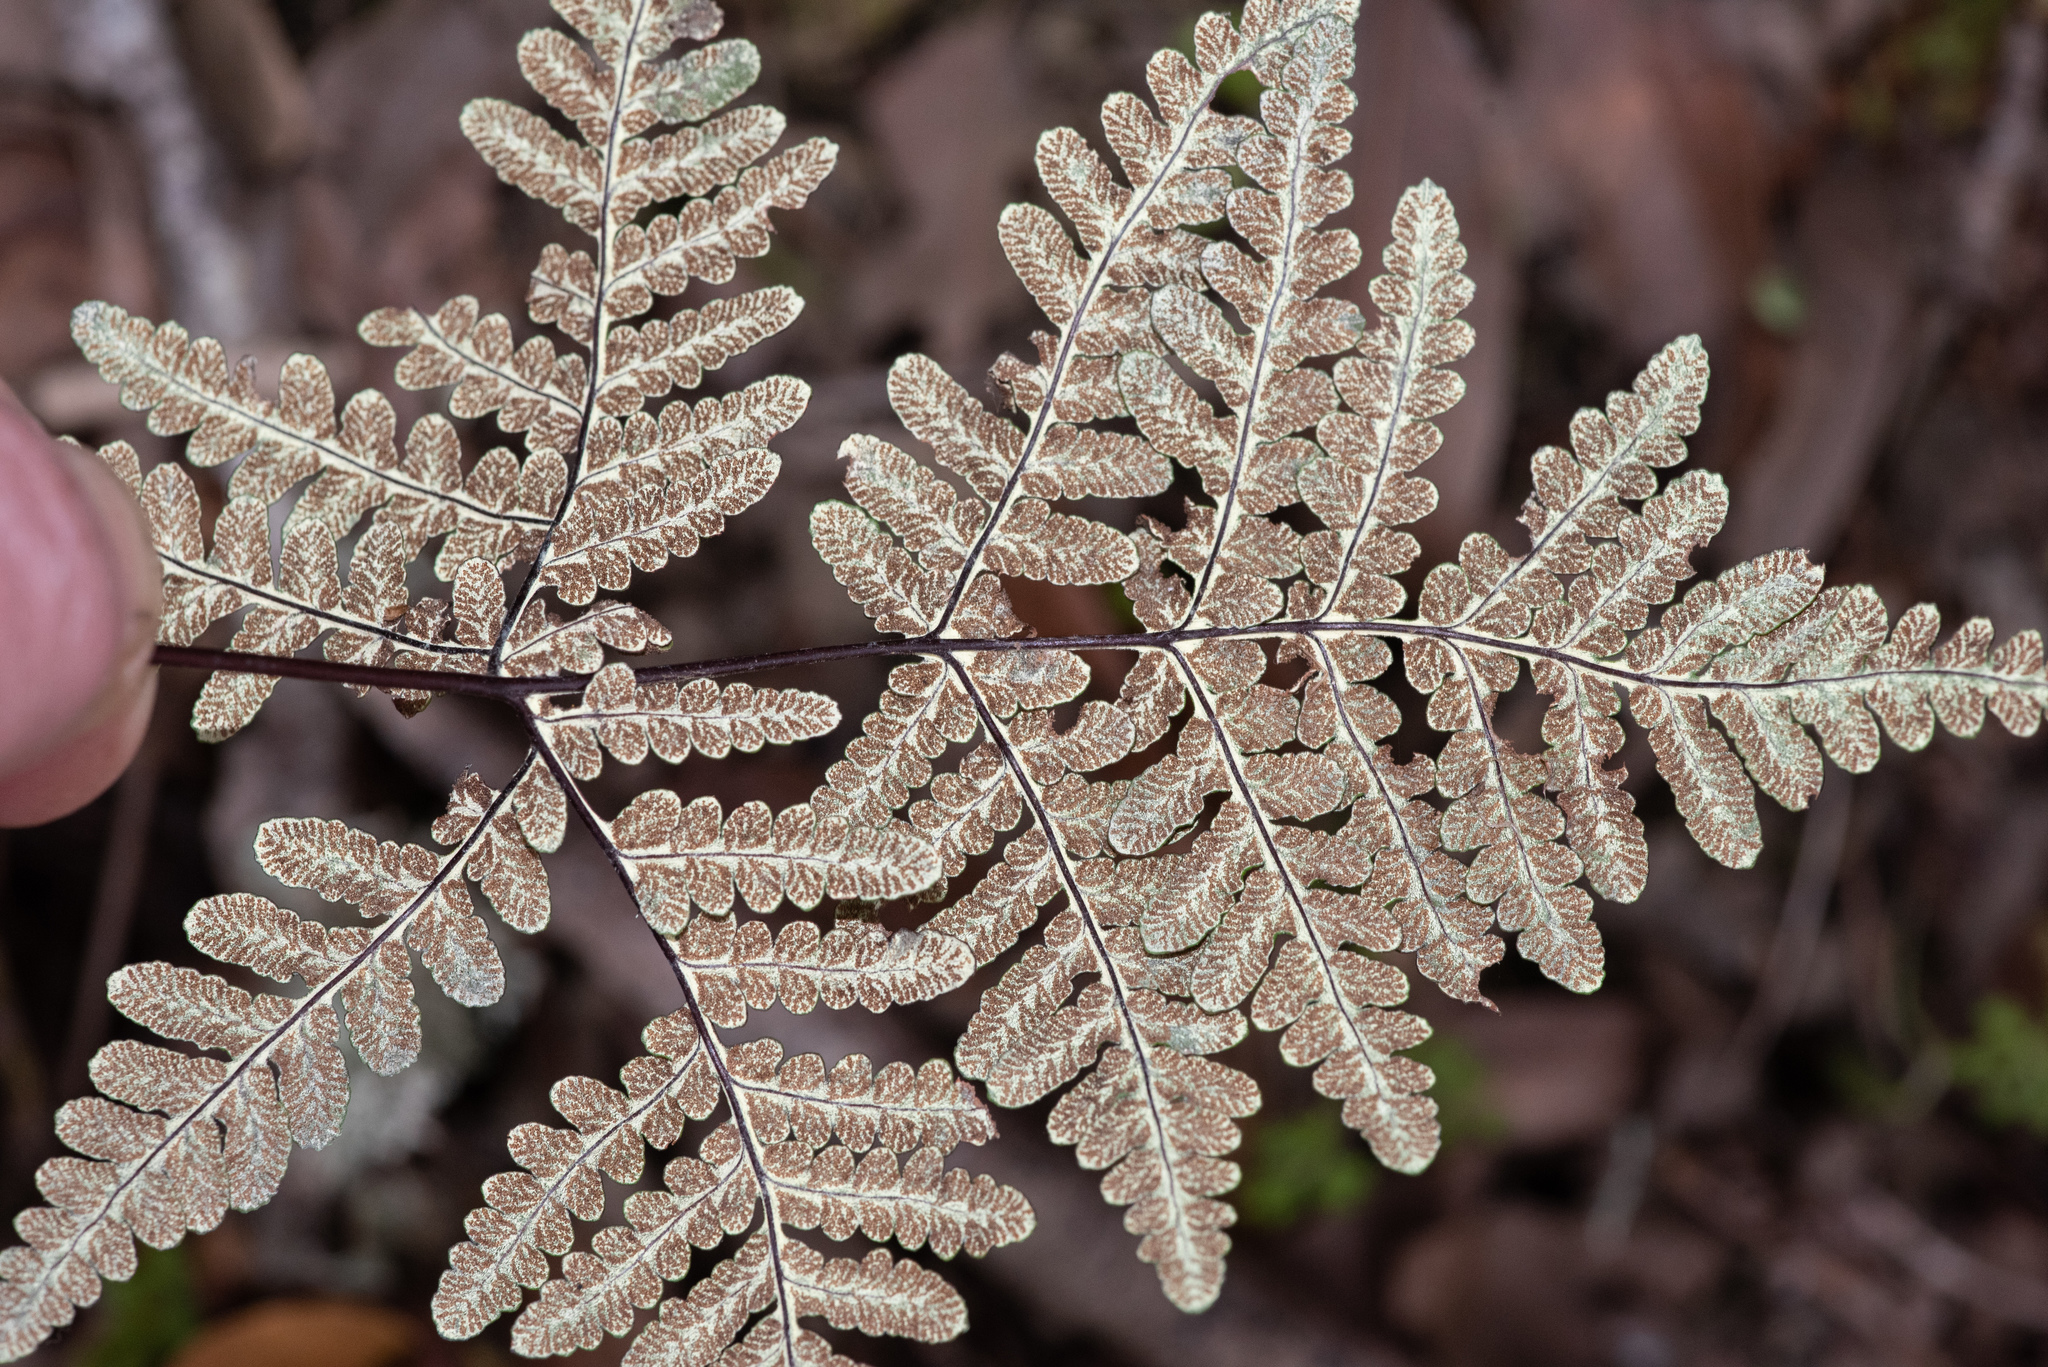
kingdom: Plantae
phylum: Tracheophyta
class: Polypodiopsida
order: Polypodiales
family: Pteridaceae
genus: Pentagramma
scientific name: Pentagramma triangularis
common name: Gold fern
